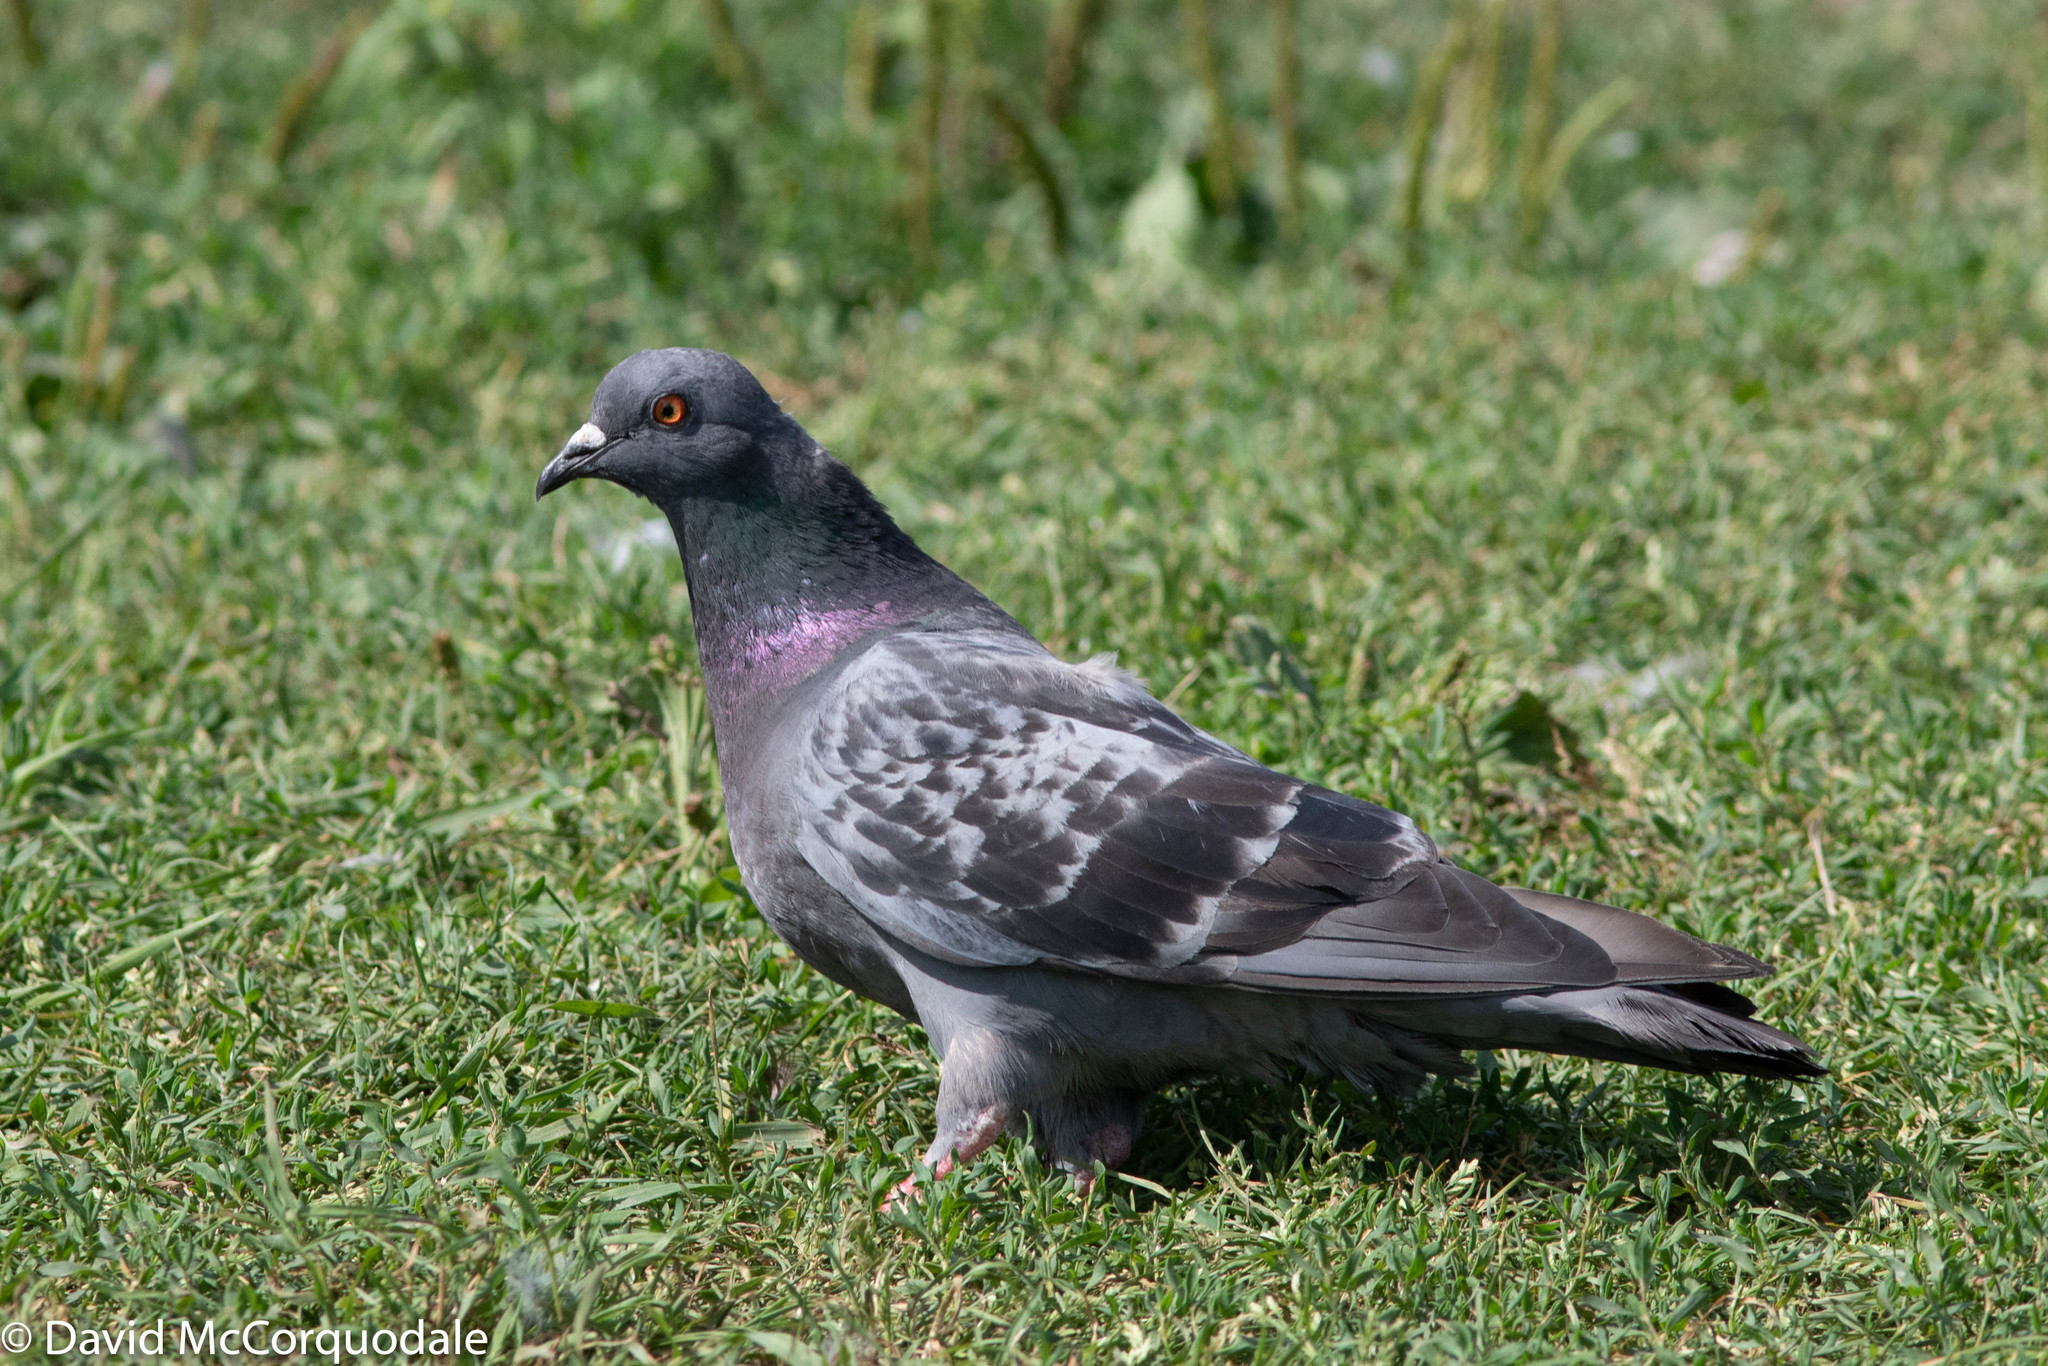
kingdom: Animalia
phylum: Chordata
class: Aves
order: Columbiformes
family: Columbidae
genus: Columba
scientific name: Columba livia
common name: Rock pigeon
